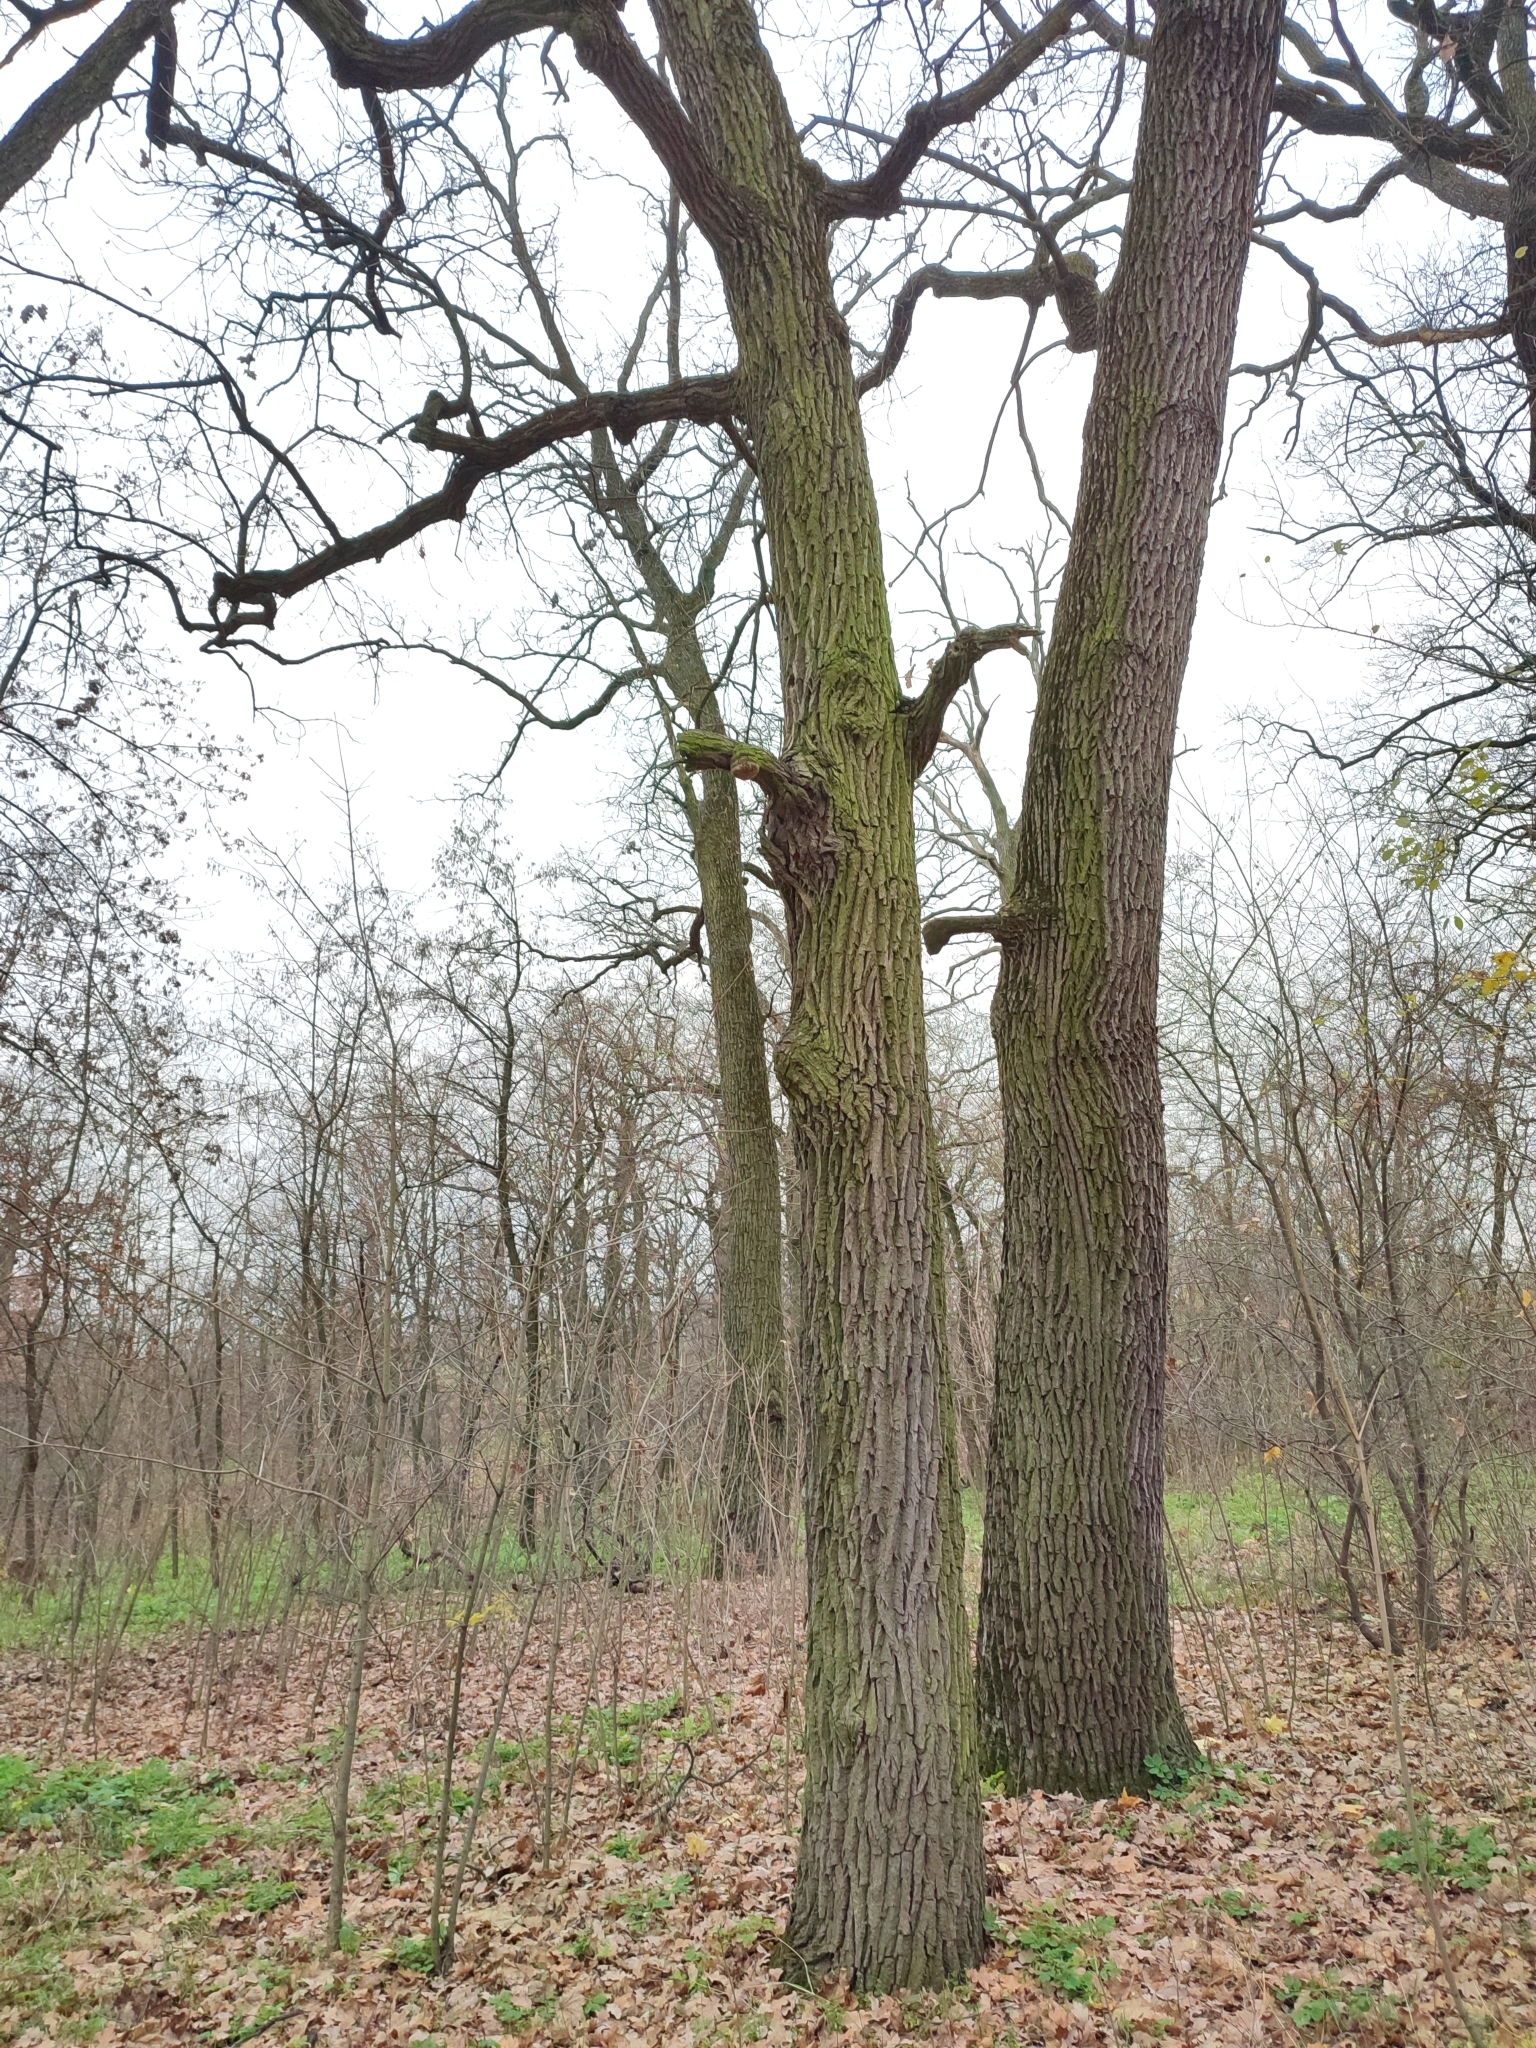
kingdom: Plantae
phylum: Tracheophyta
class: Magnoliopsida
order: Fagales
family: Fagaceae
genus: Quercus
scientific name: Quercus robur
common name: Pedunculate oak
